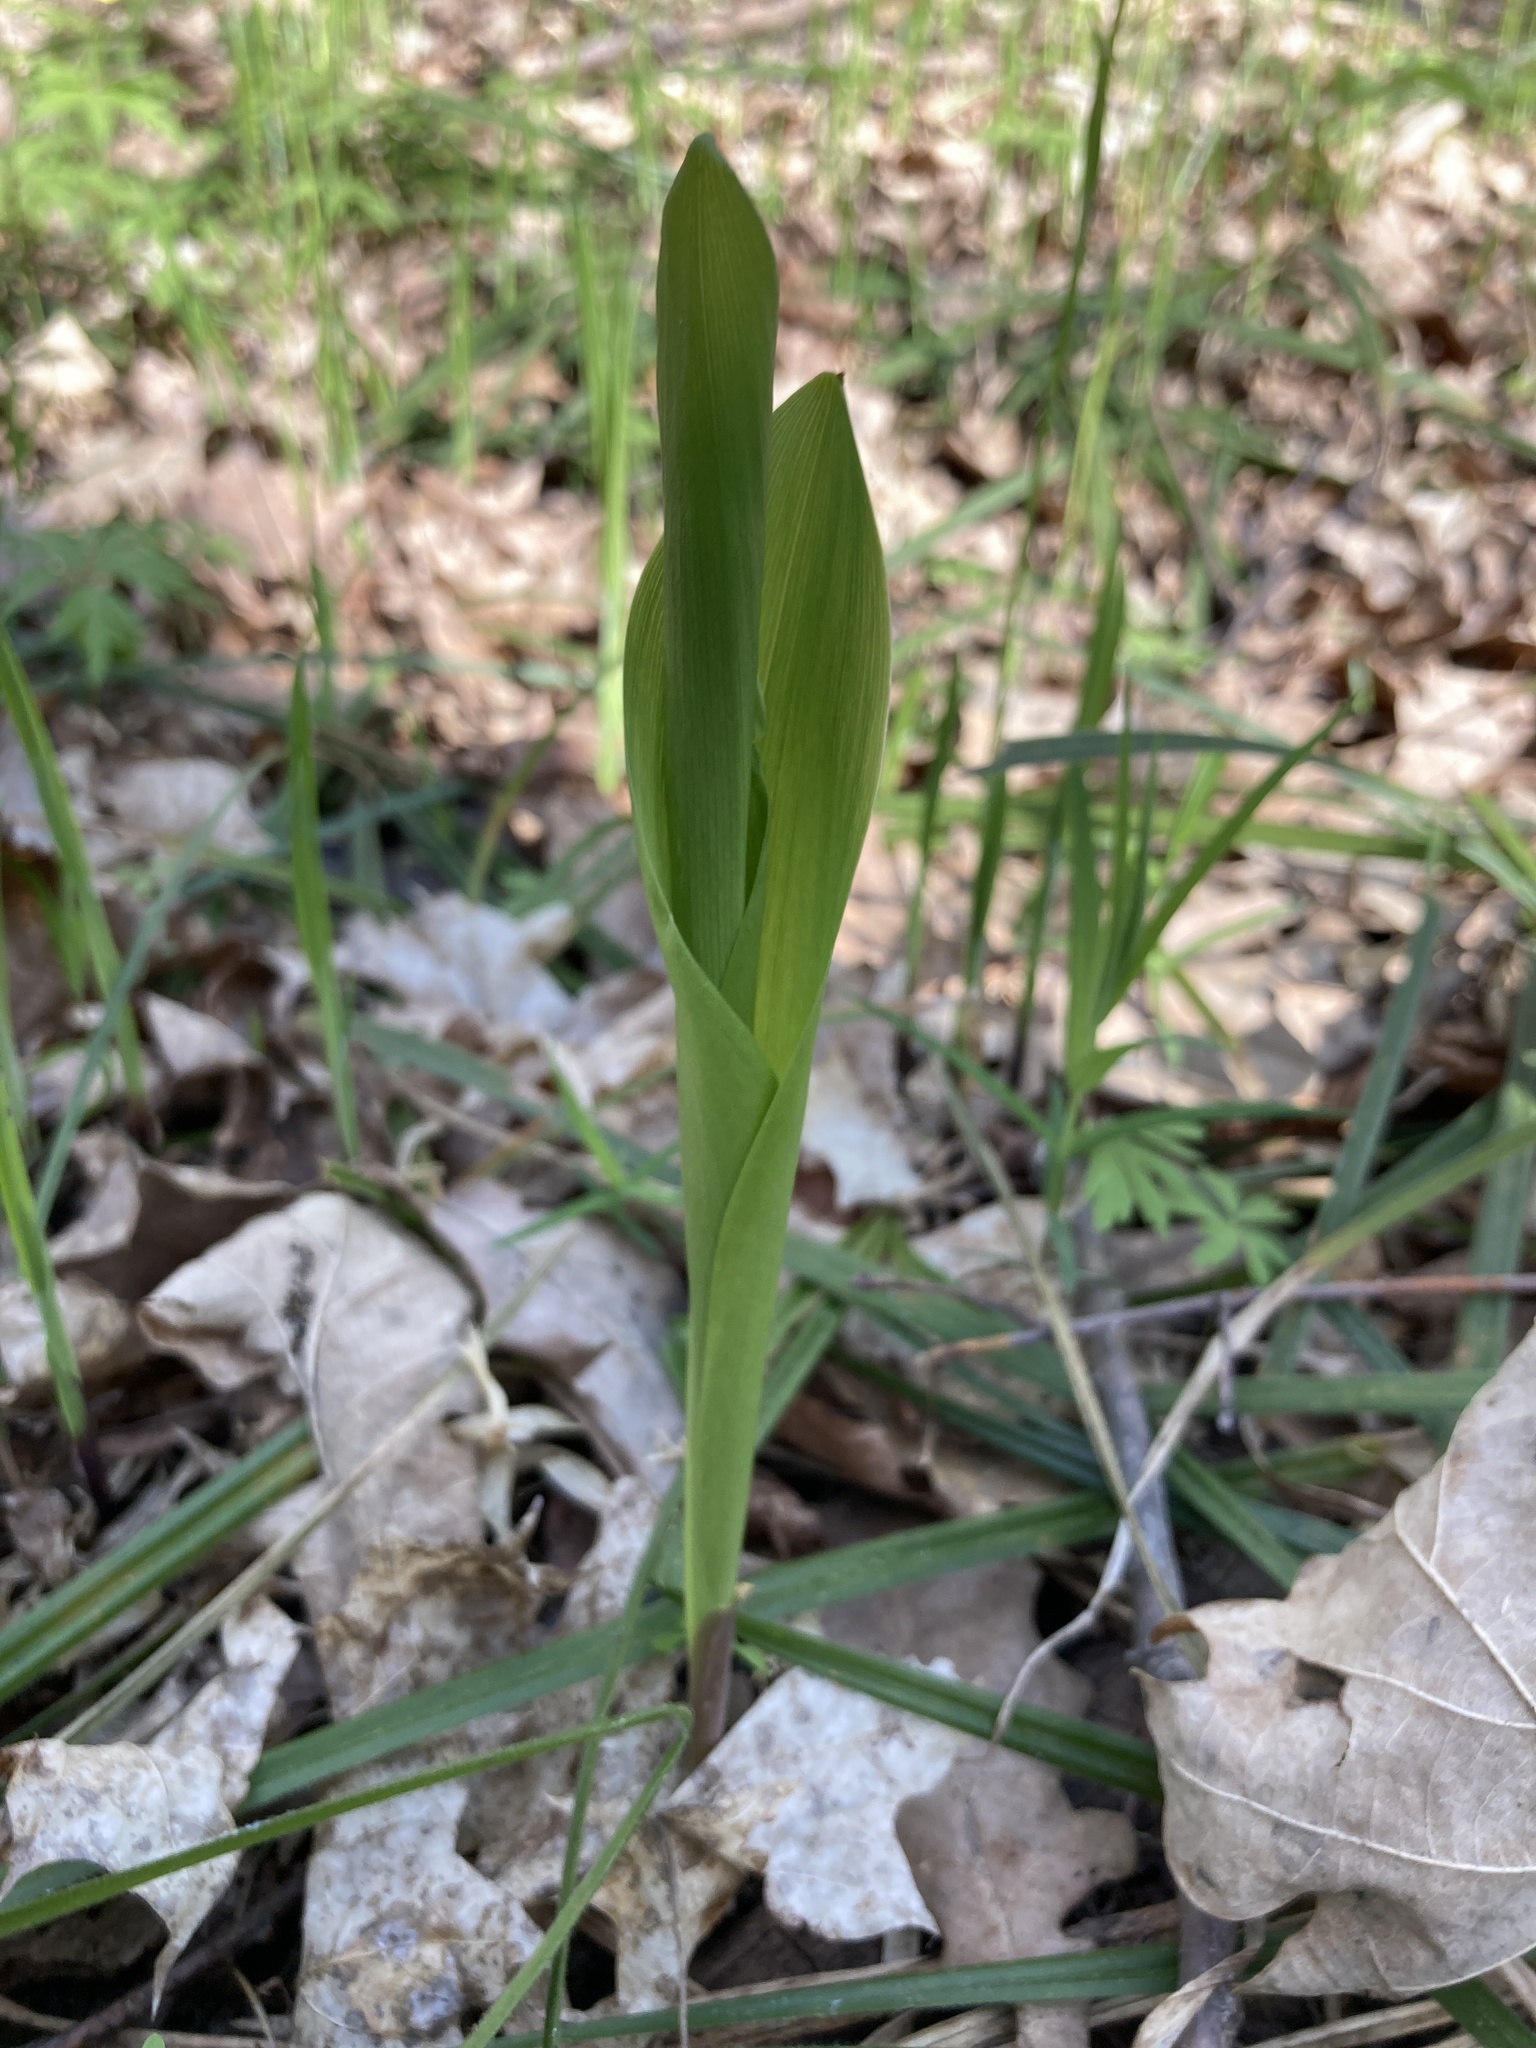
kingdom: Plantae
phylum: Tracheophyta
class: Liliopsida
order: Asparagales
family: Asparagaceae
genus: Convallaria
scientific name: Convallaria majalis
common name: Lily-of-the-valley
